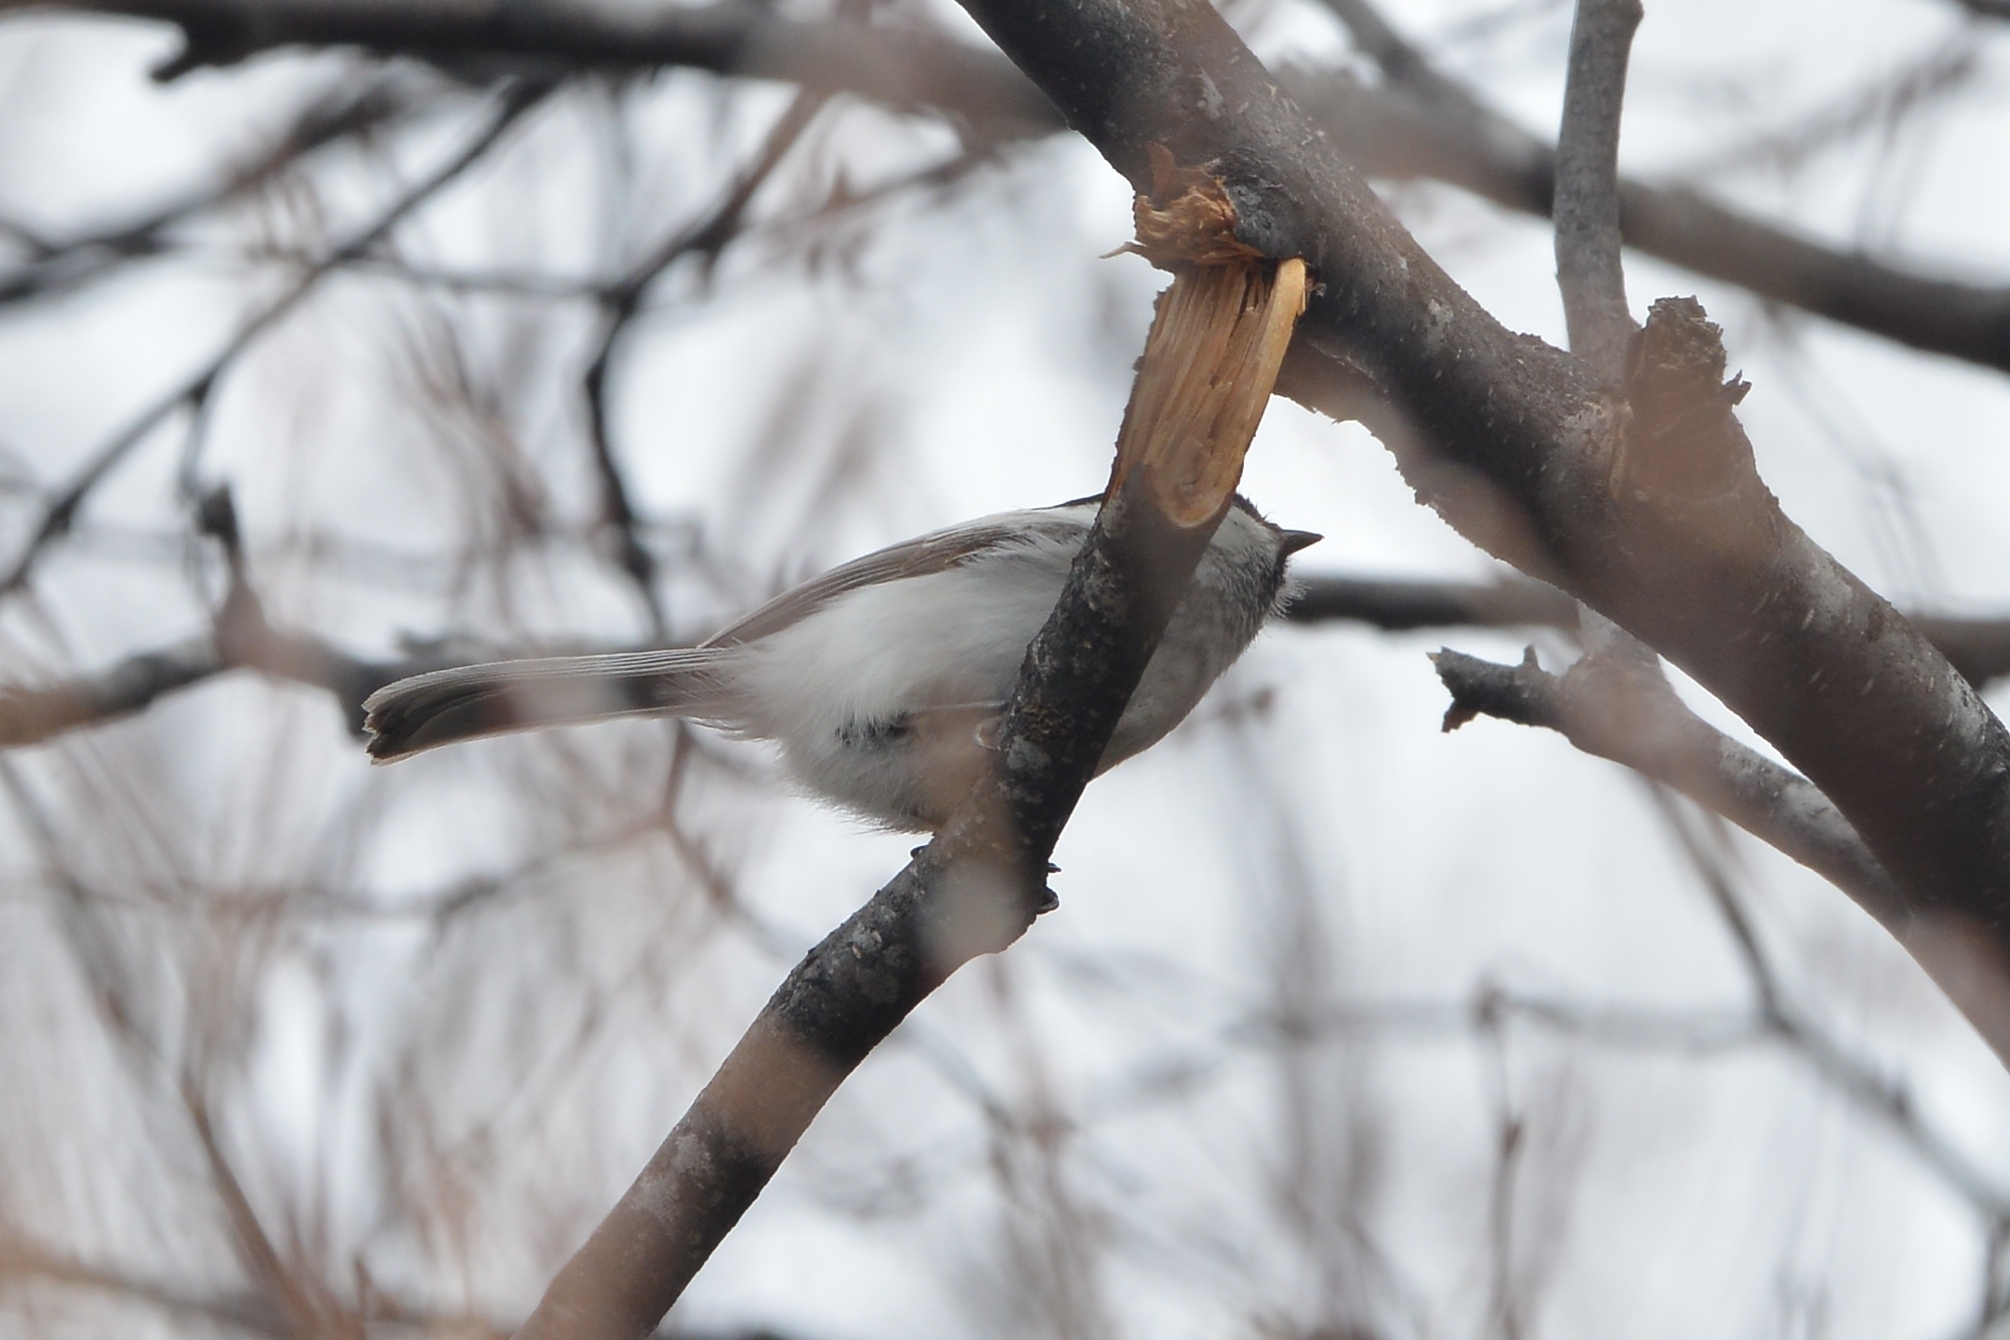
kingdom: Animalia
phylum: Chordata
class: Aves
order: Passeriformes
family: Paridae
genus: Poecile
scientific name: Poecile montanus
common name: Willow tit
